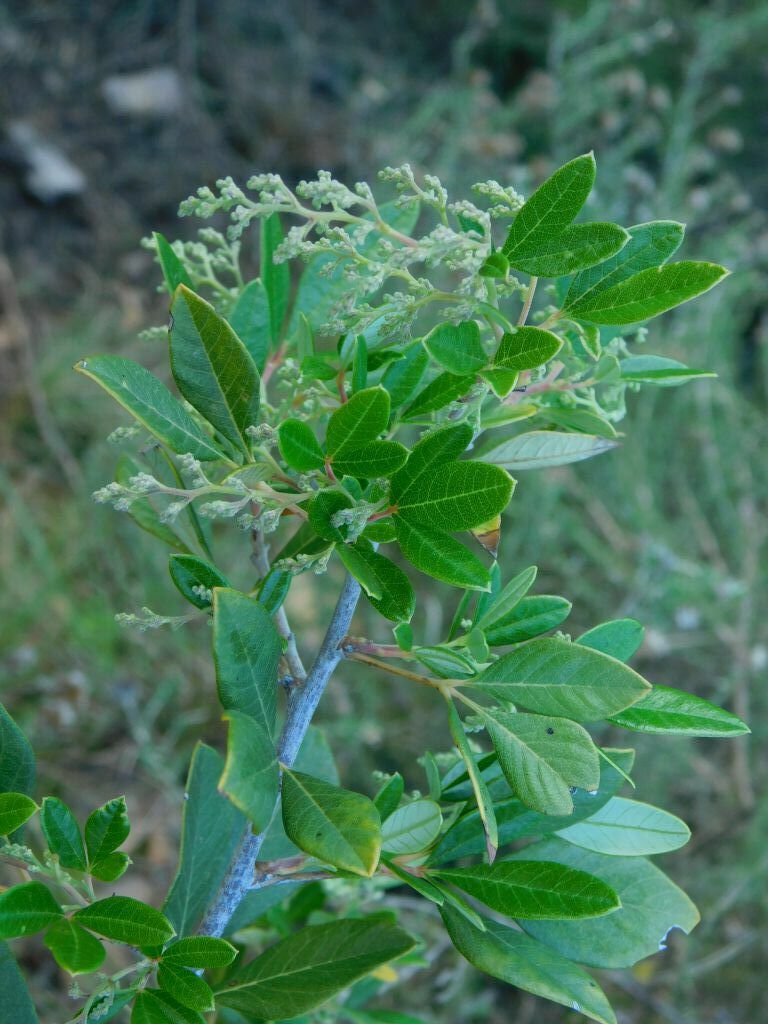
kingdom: Plantae
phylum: Tracheophyta
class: Magnoliopsida
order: Sapindales
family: Anacardiaceae
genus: Searsia
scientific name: Searsia tomentosa
